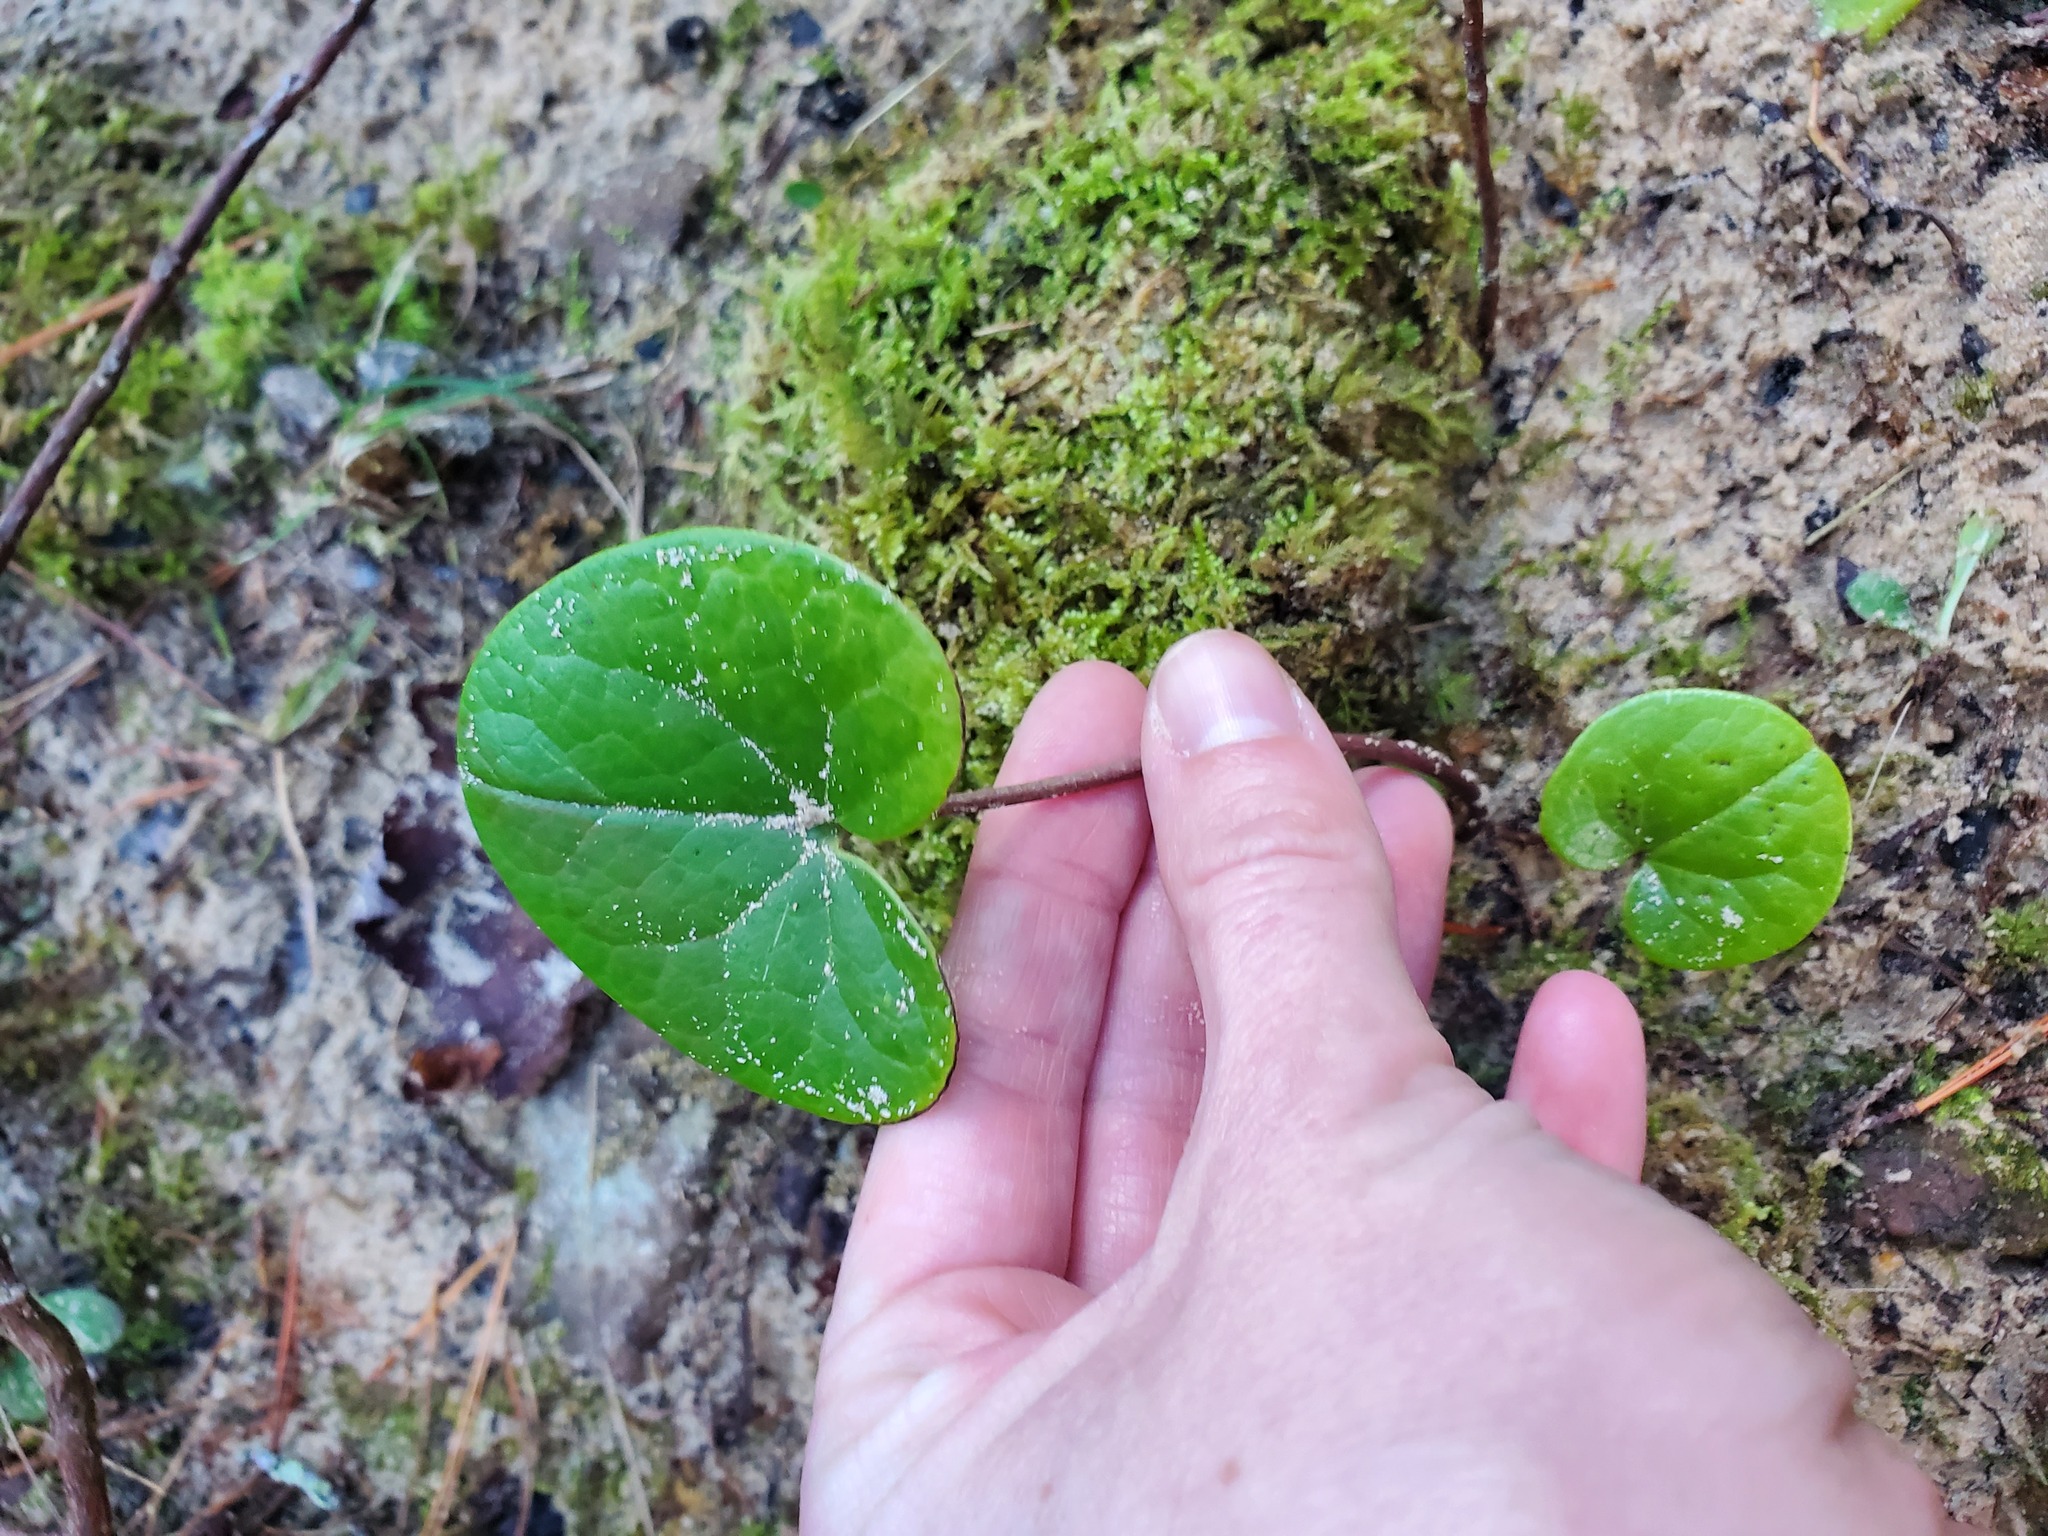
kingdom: Plantae
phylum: Tracheophyta
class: Magnoliopsida
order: Piperales
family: Aristolochiaceae
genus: Asarum
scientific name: Asarum canadense
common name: Wild ginger
